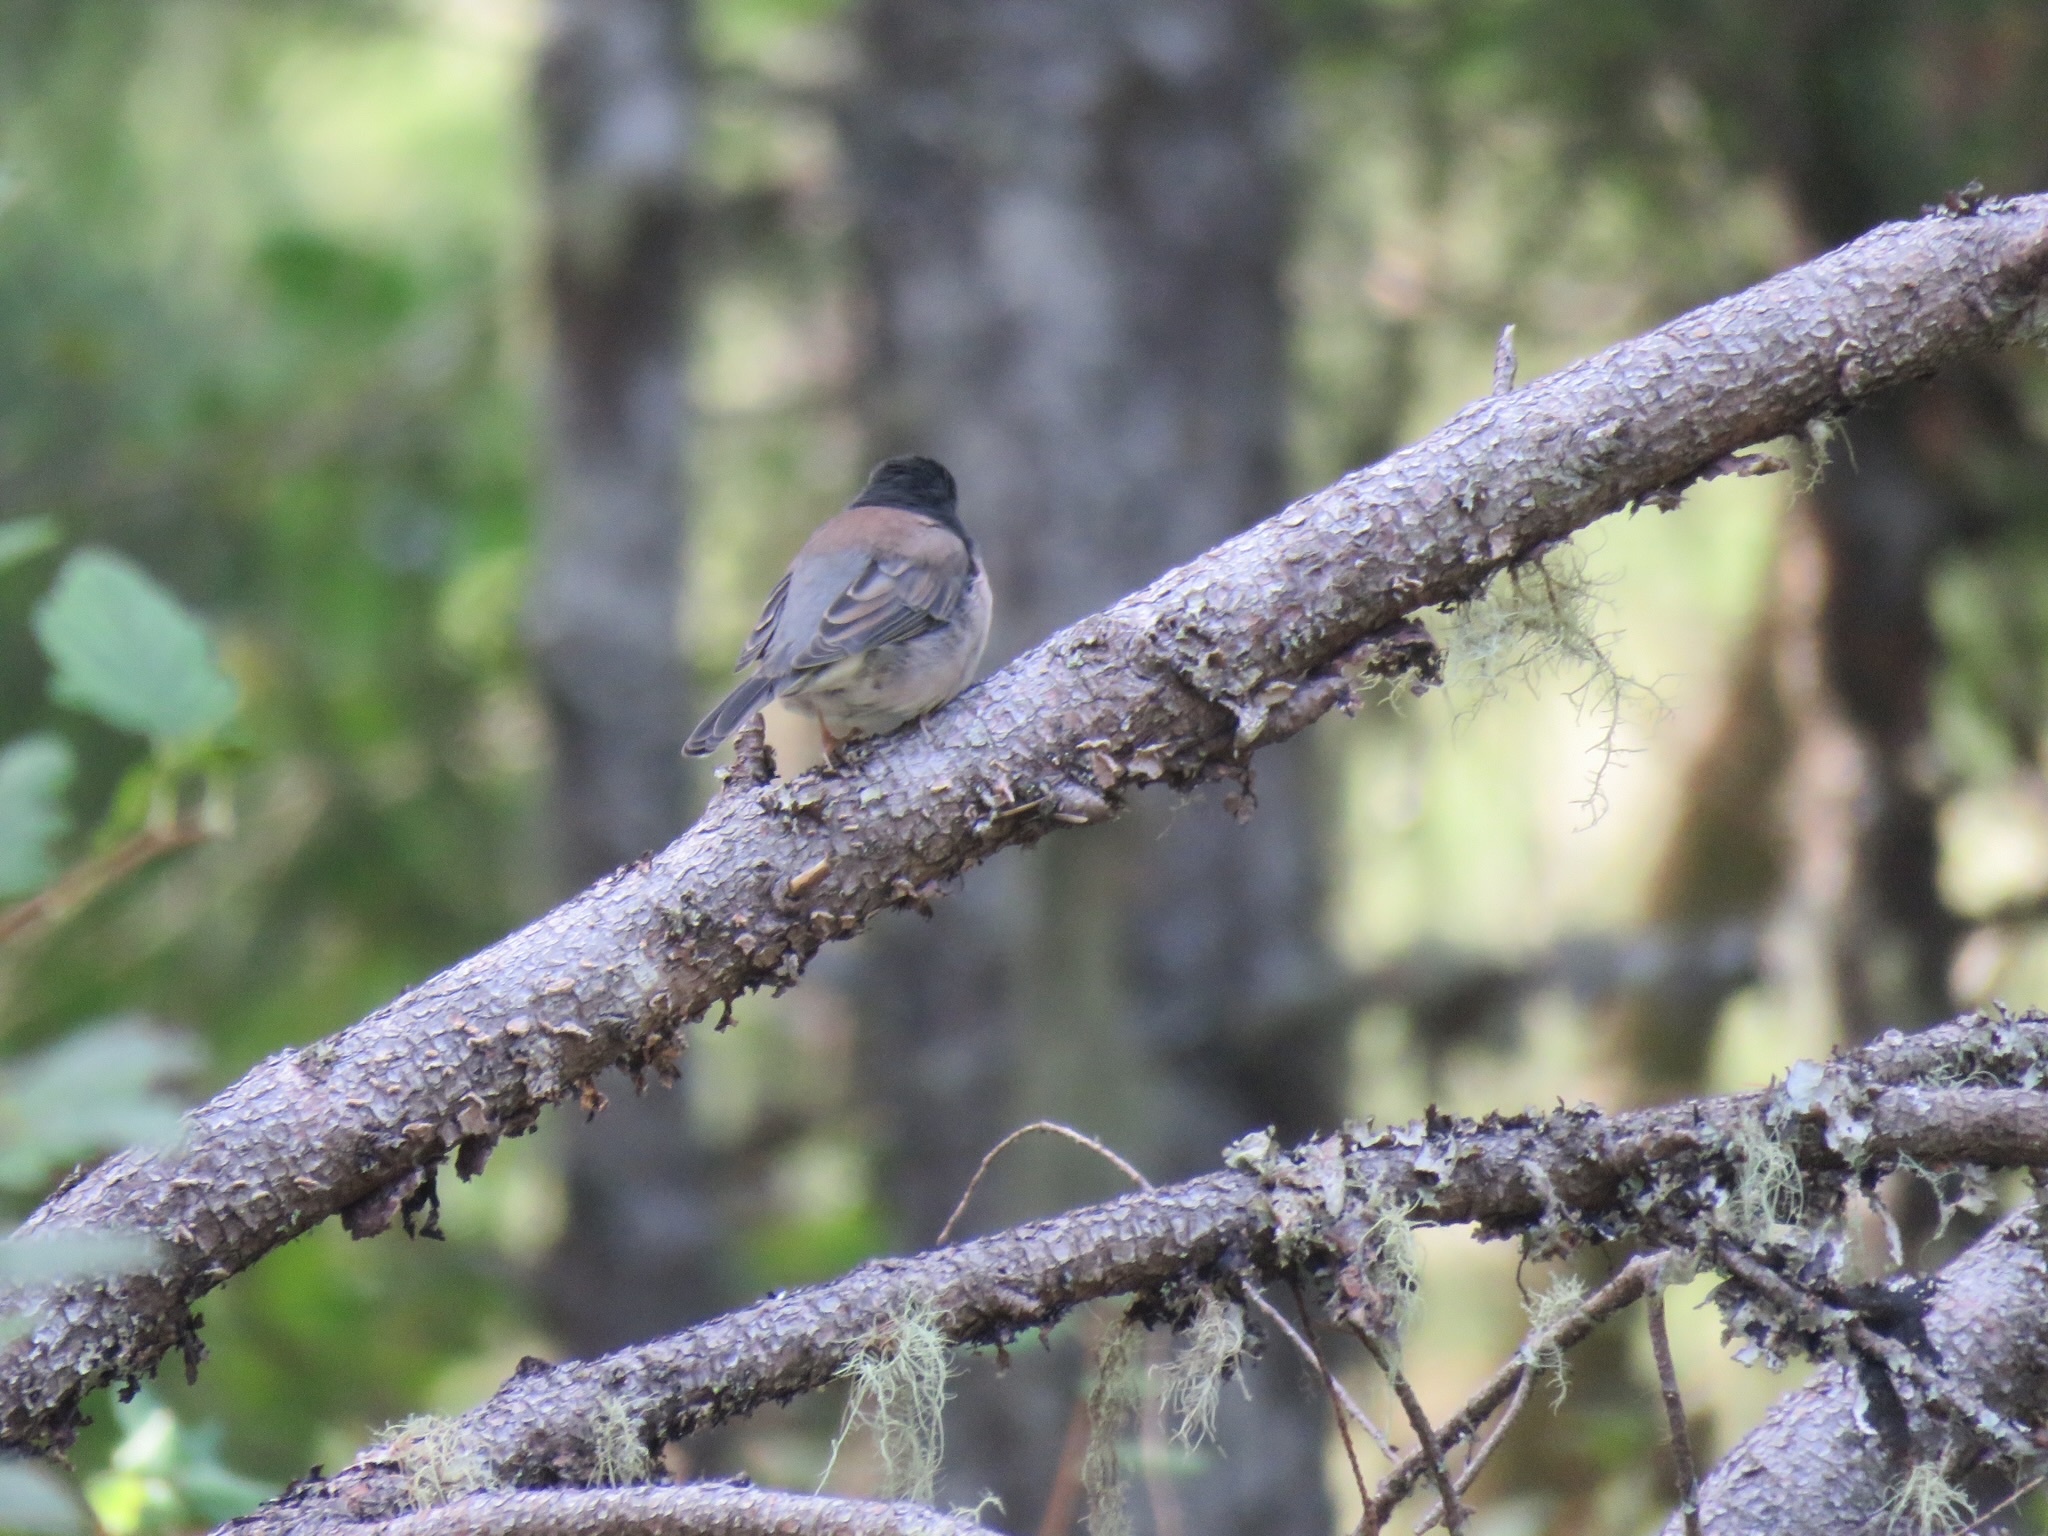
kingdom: Animalia
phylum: Chordata
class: Aves
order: Passeriformes
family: Passerellidae
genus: Junco
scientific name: Junco hyemalis
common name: Dark-eyed junco
